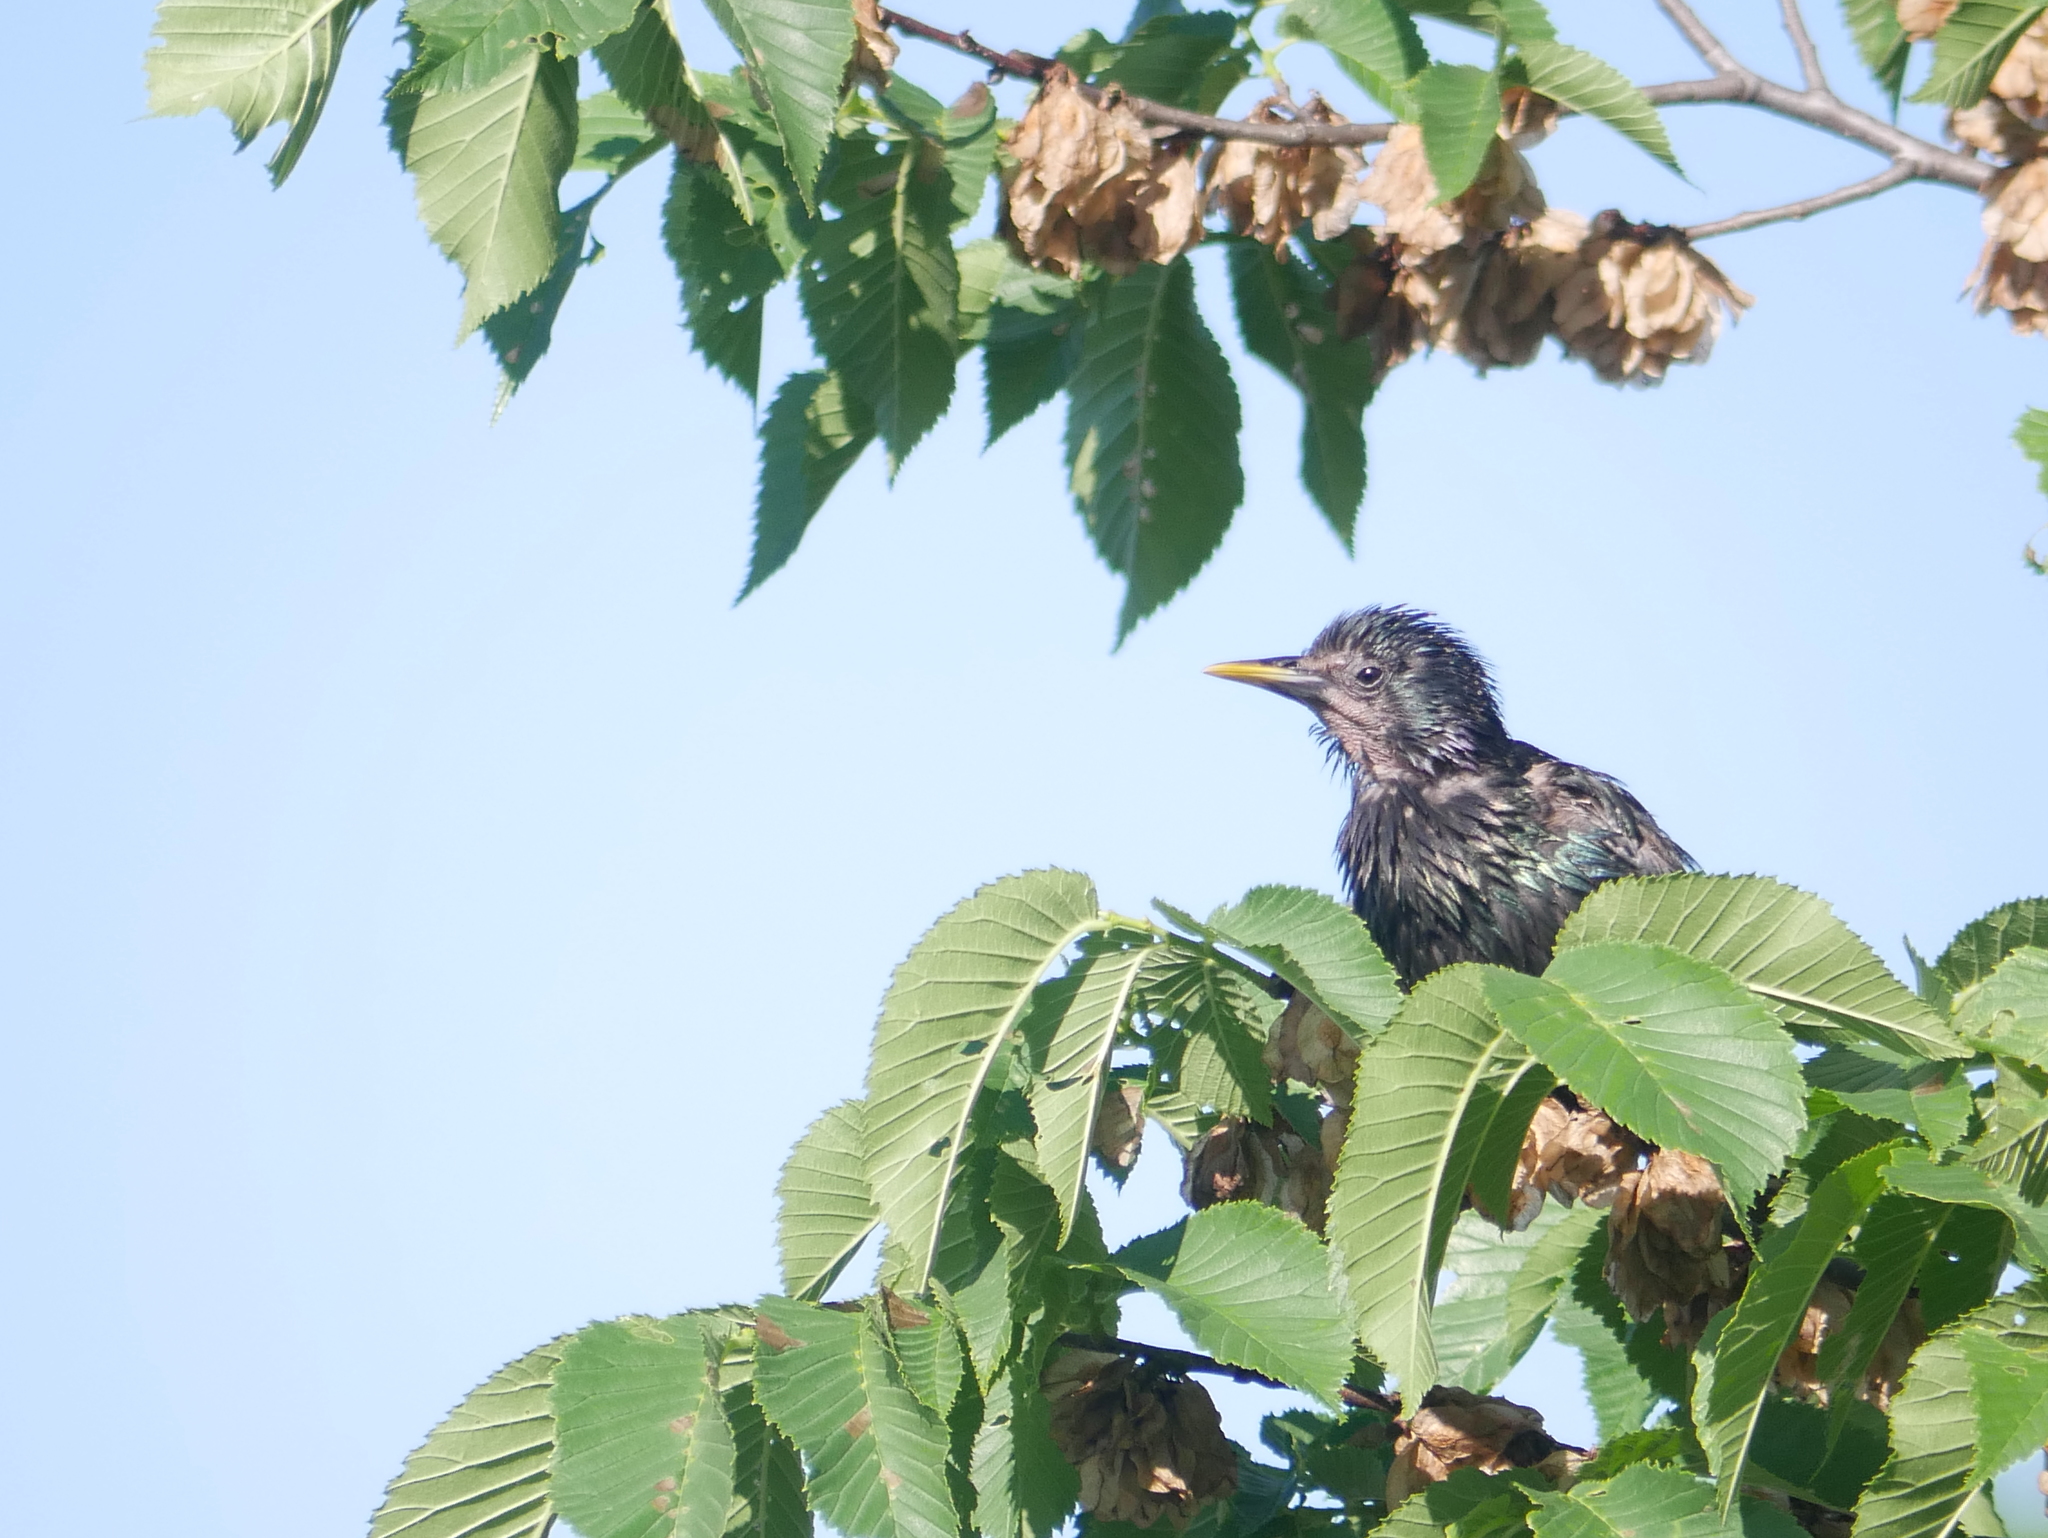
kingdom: Animalia
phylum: Chordata
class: Aves
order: Passeriformes
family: Sturnidae
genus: Sturnus
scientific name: Sturnus vulgaris
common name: Common starling
